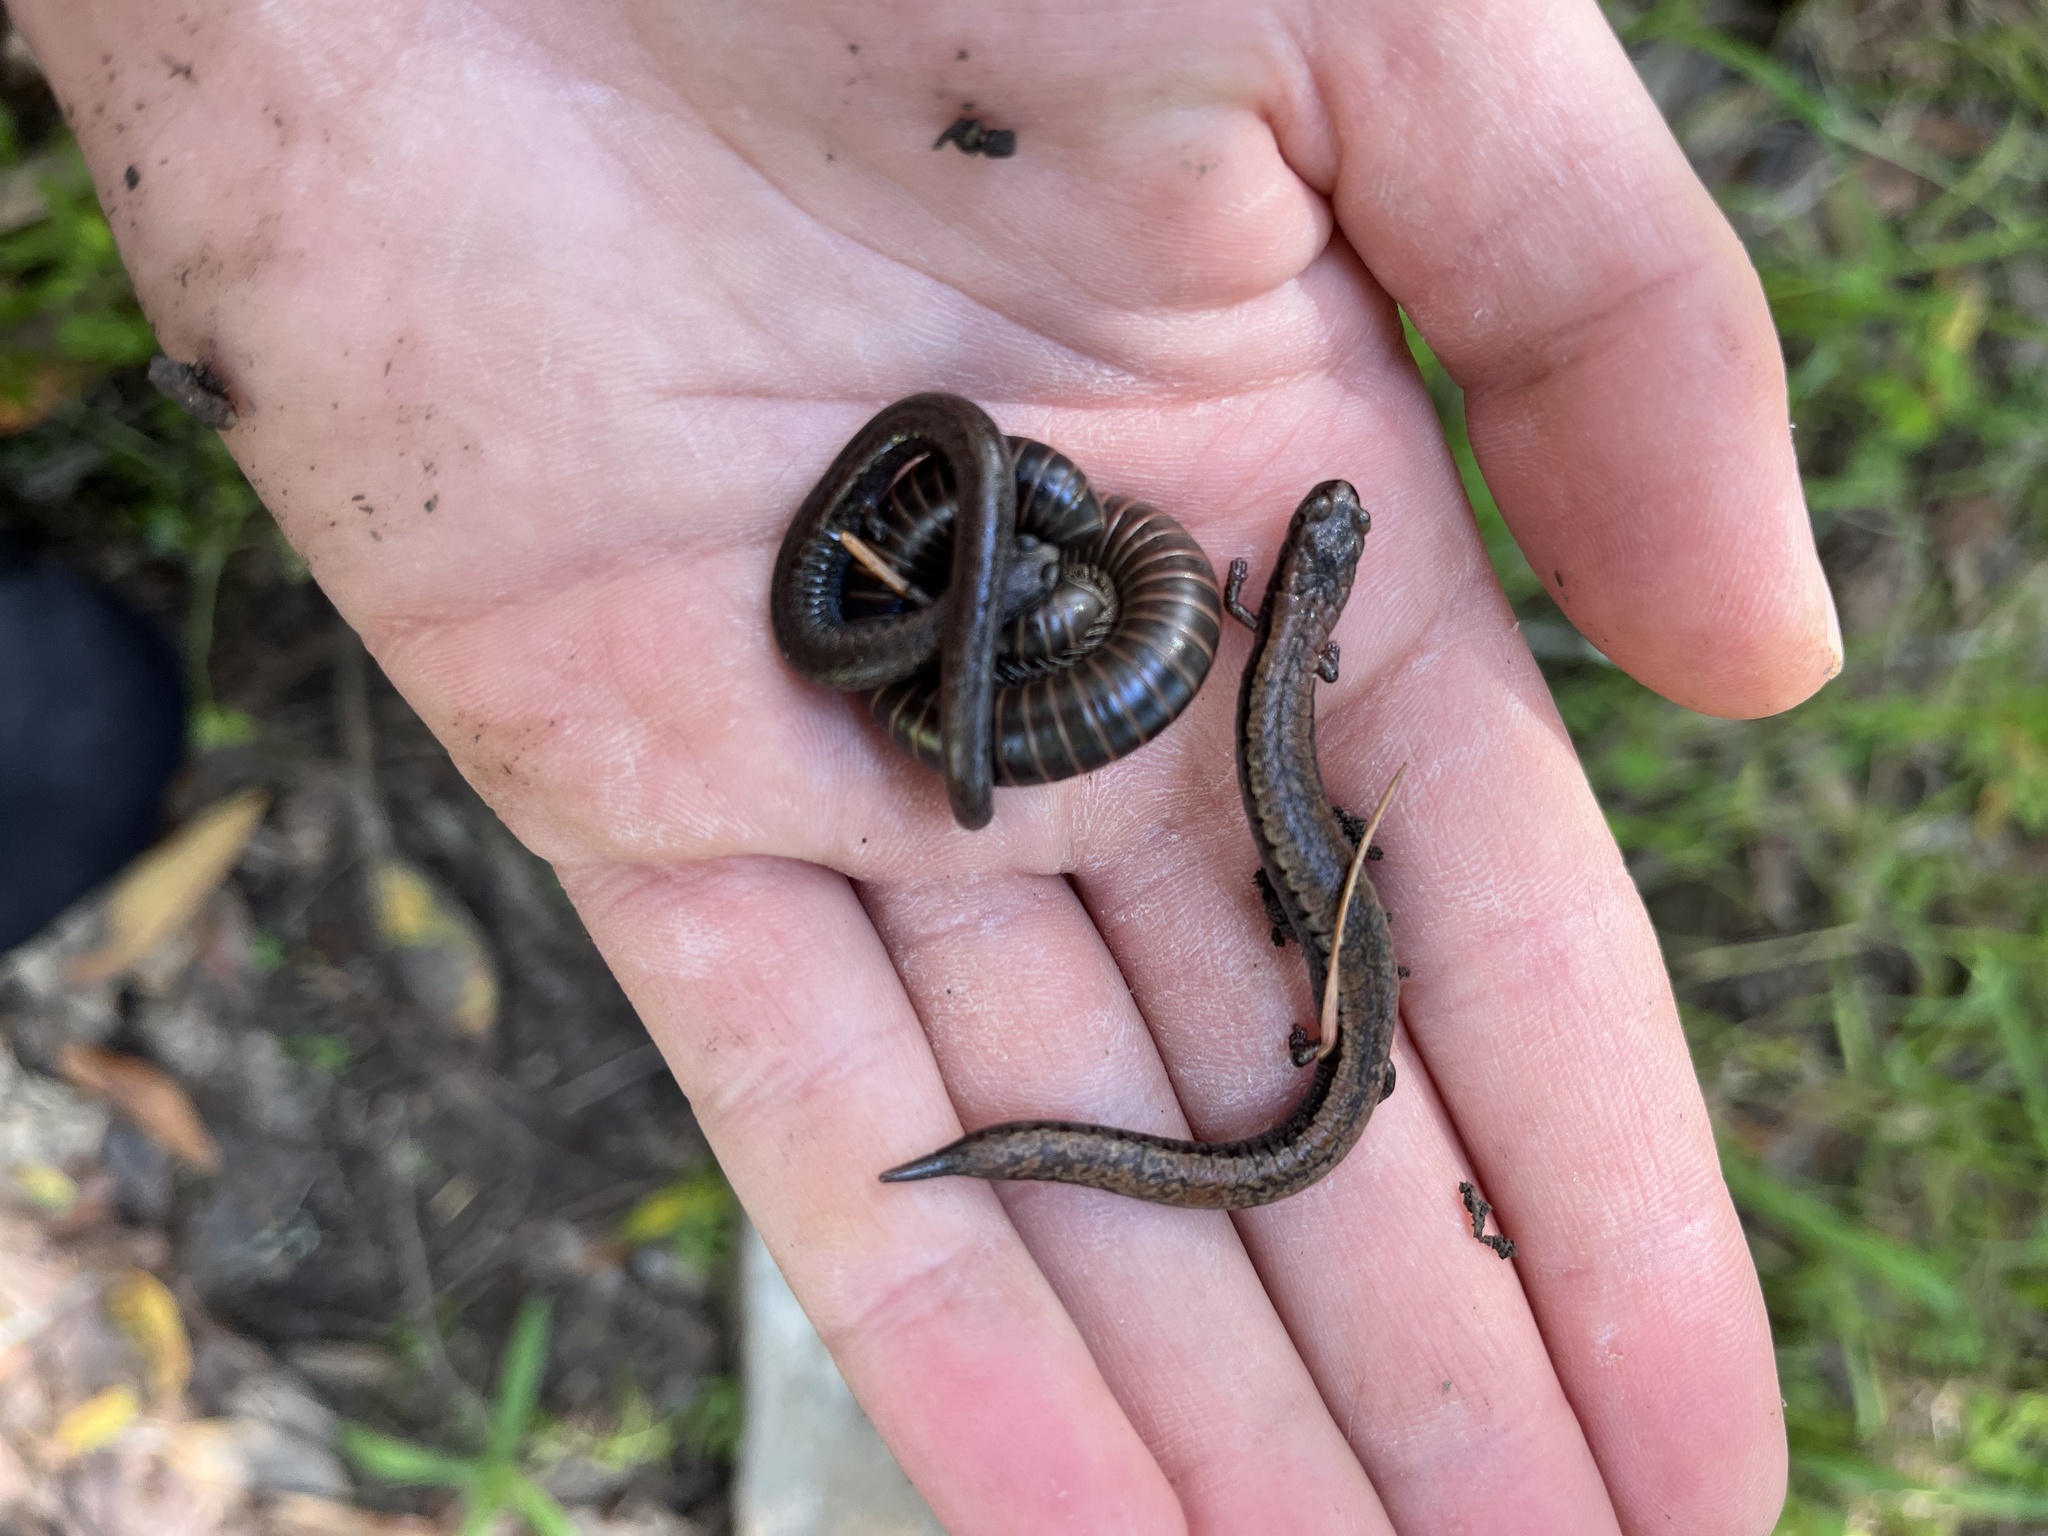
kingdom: Animalia
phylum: Chordata
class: Amphibia
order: Caudata
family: Plethodontidae
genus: Batrachoseps
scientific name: Batrachoseps attenuatus
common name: California slender salamander
